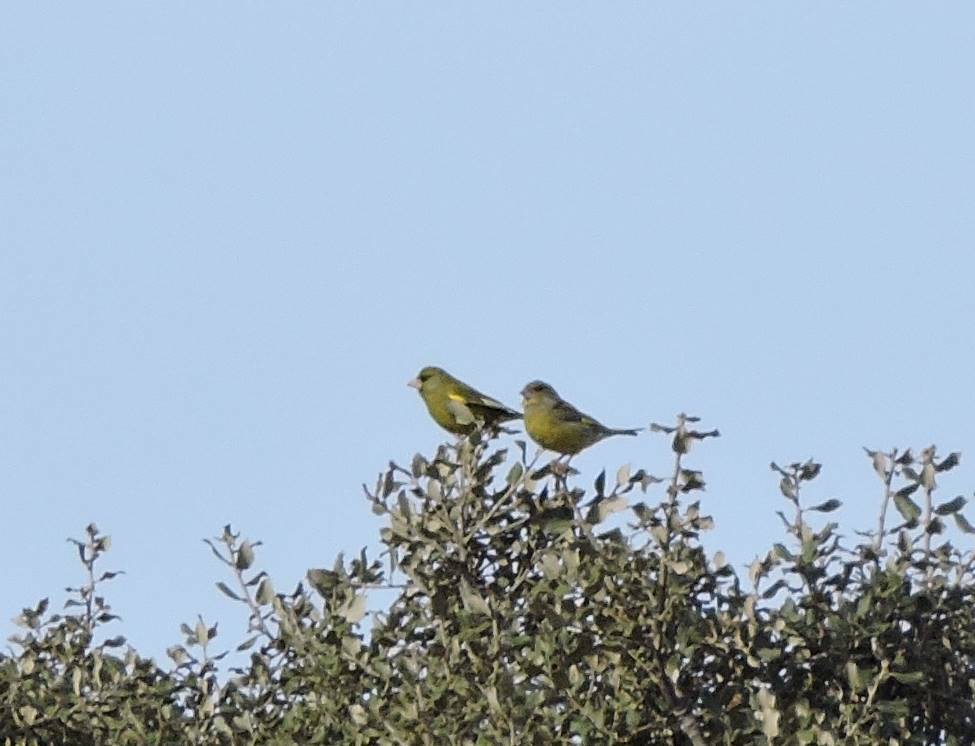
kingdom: Plantae
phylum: Tracheophyta
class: Liliopsida
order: Poales
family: Poaceae
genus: Chloris
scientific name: Chloris chloris
